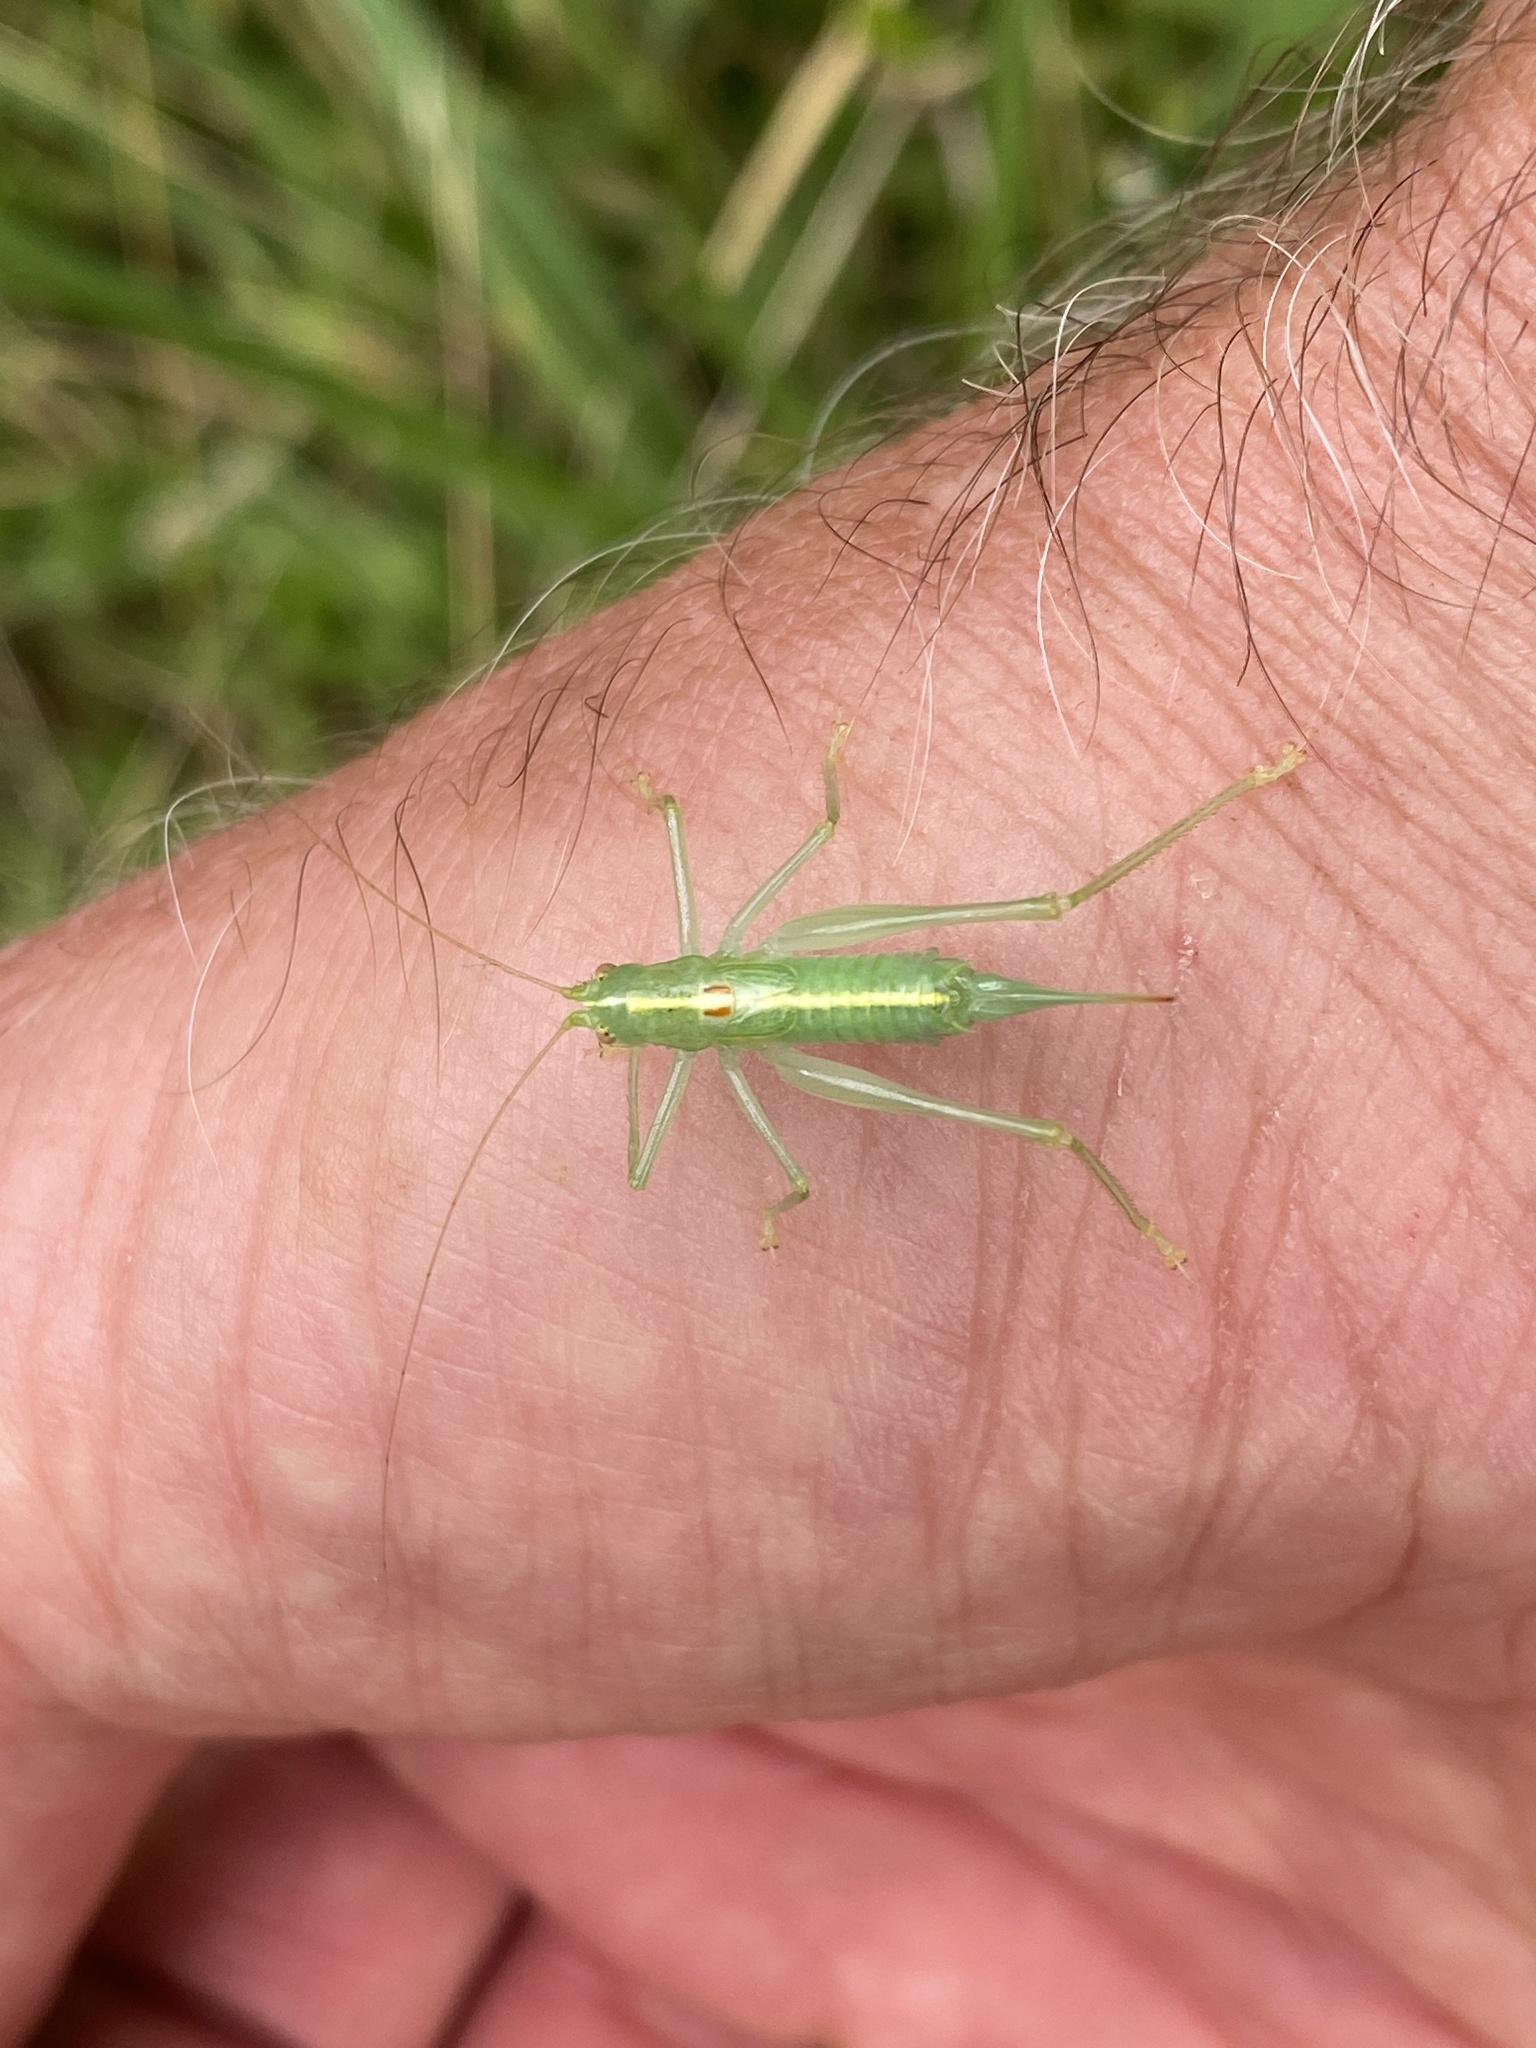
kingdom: Animalia
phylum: Arthropoda
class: Insecta
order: Orthoptera
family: Tettigoniidae
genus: Meconema
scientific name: Meconema meridionale
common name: Southern oak bush-cricket
